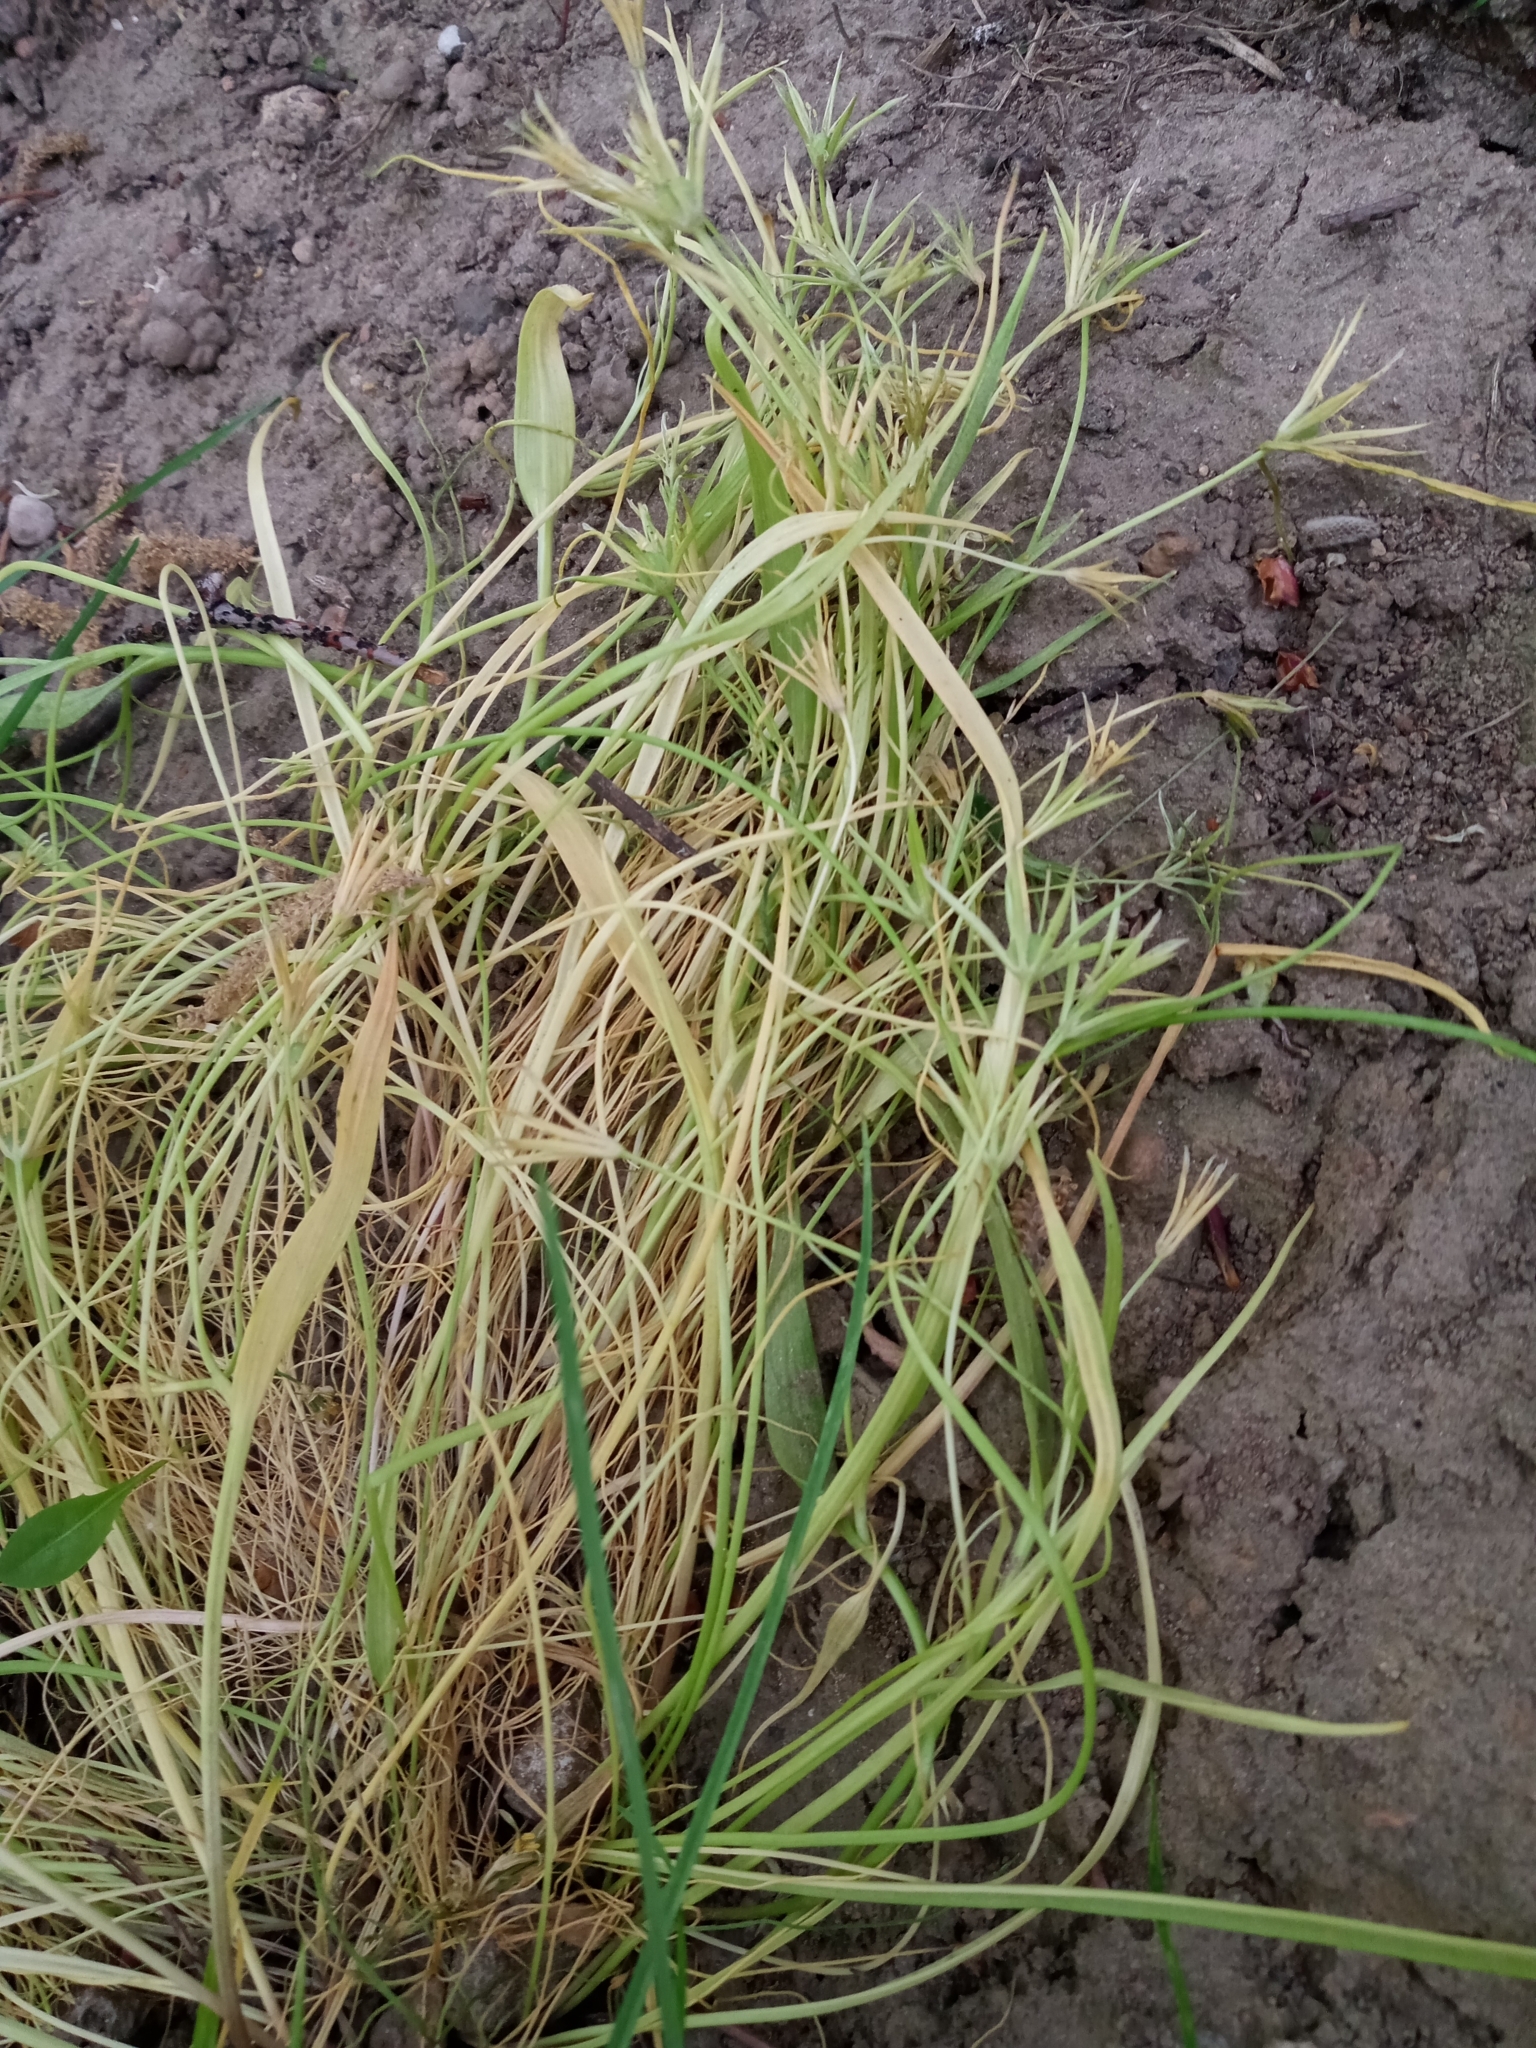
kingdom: Plantae
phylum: Tracheophyta
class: Liliopsida
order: Liliales
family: Liliaceae
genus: Gagea
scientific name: Gagea minima
